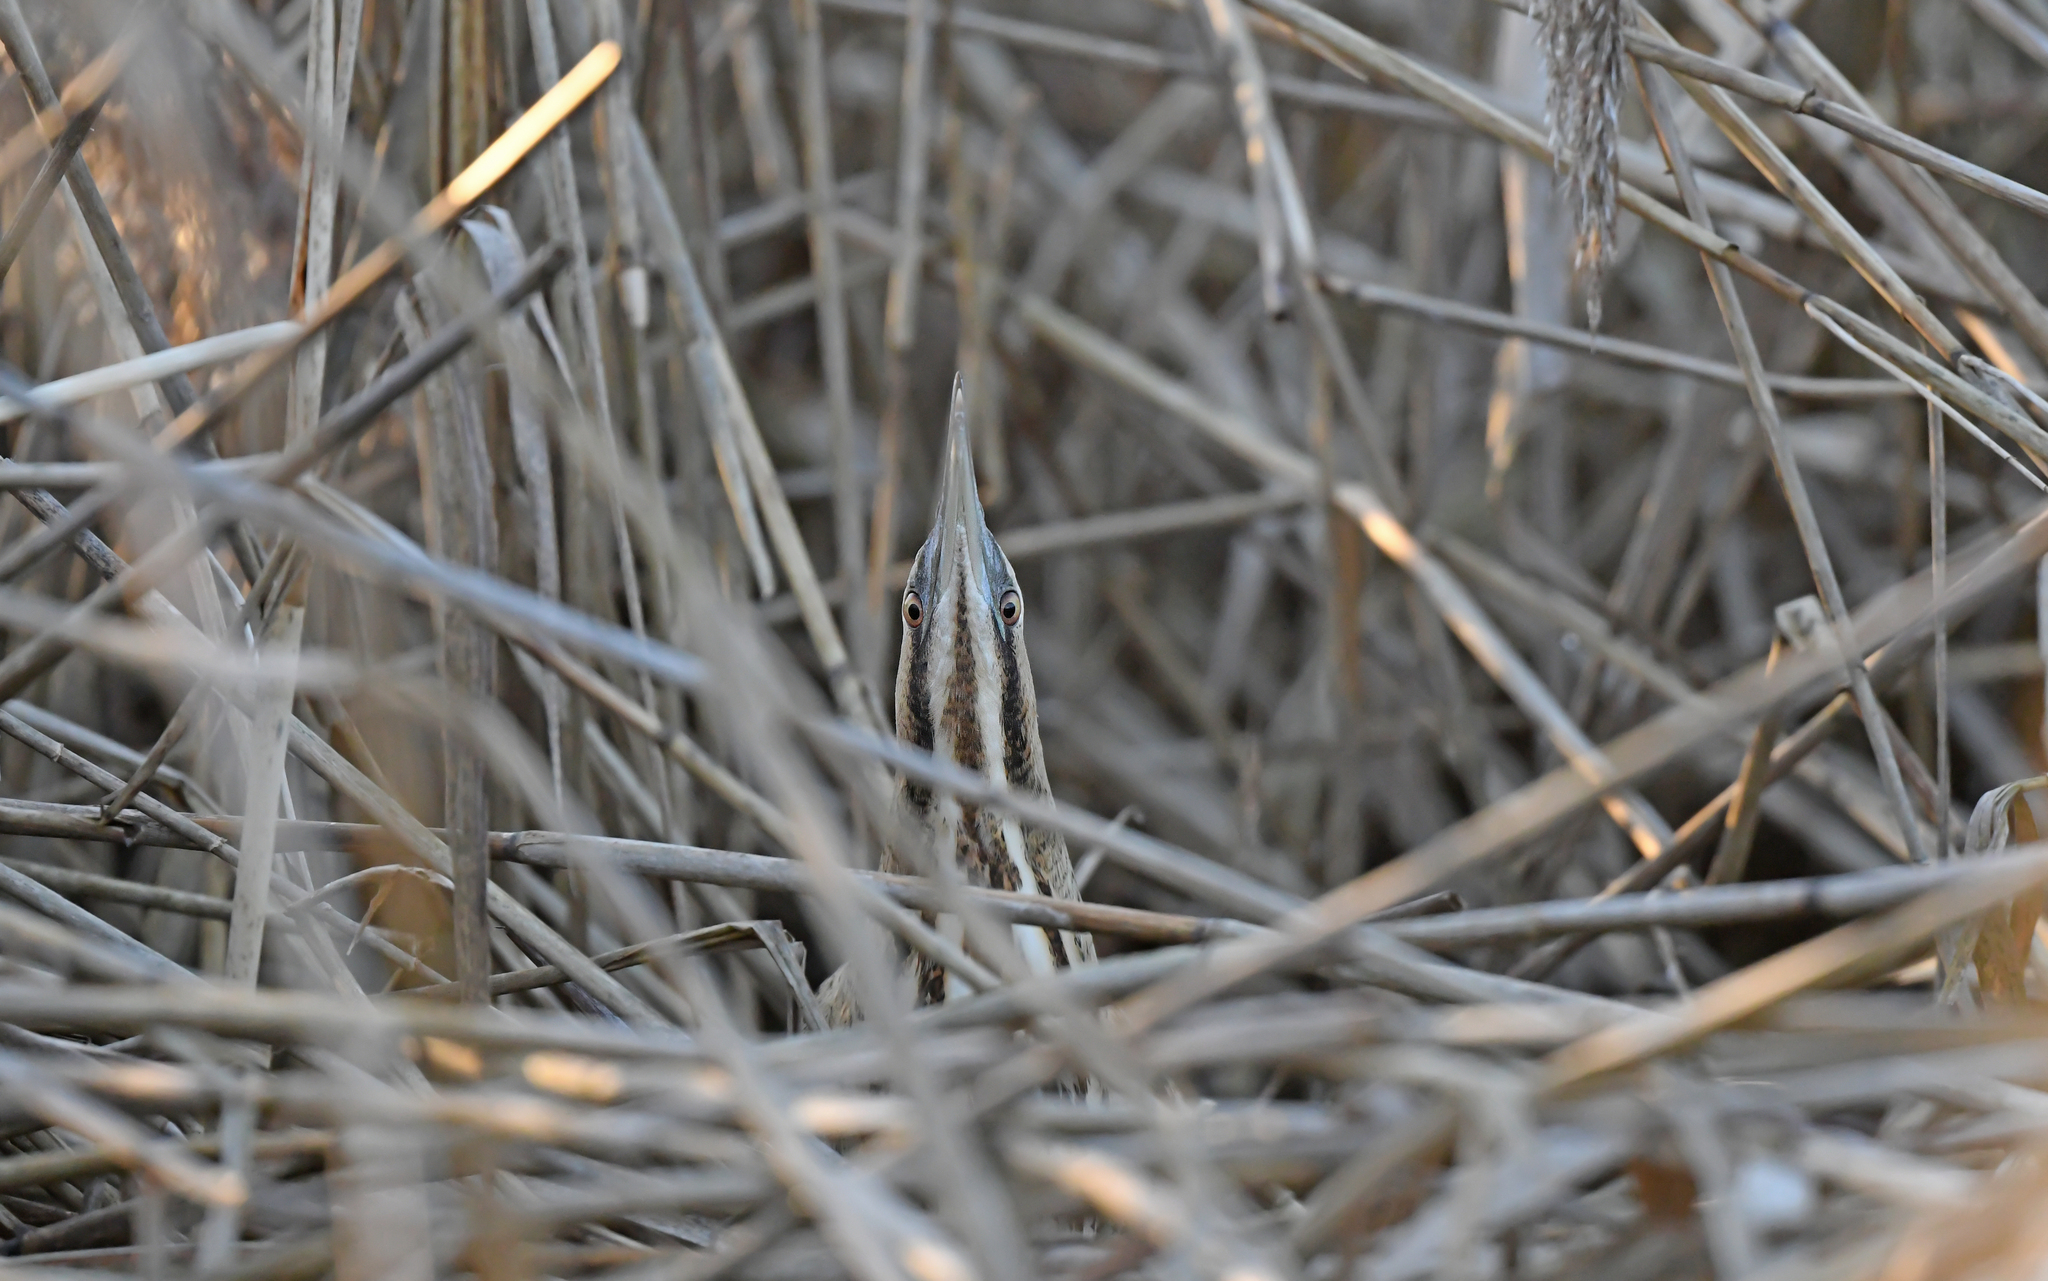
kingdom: Animalia
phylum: Chordata
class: Aves
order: Pelecaniformes
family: Ardeidae
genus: Botaurus
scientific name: Botaurus stellaris
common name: Eurasian bittern
